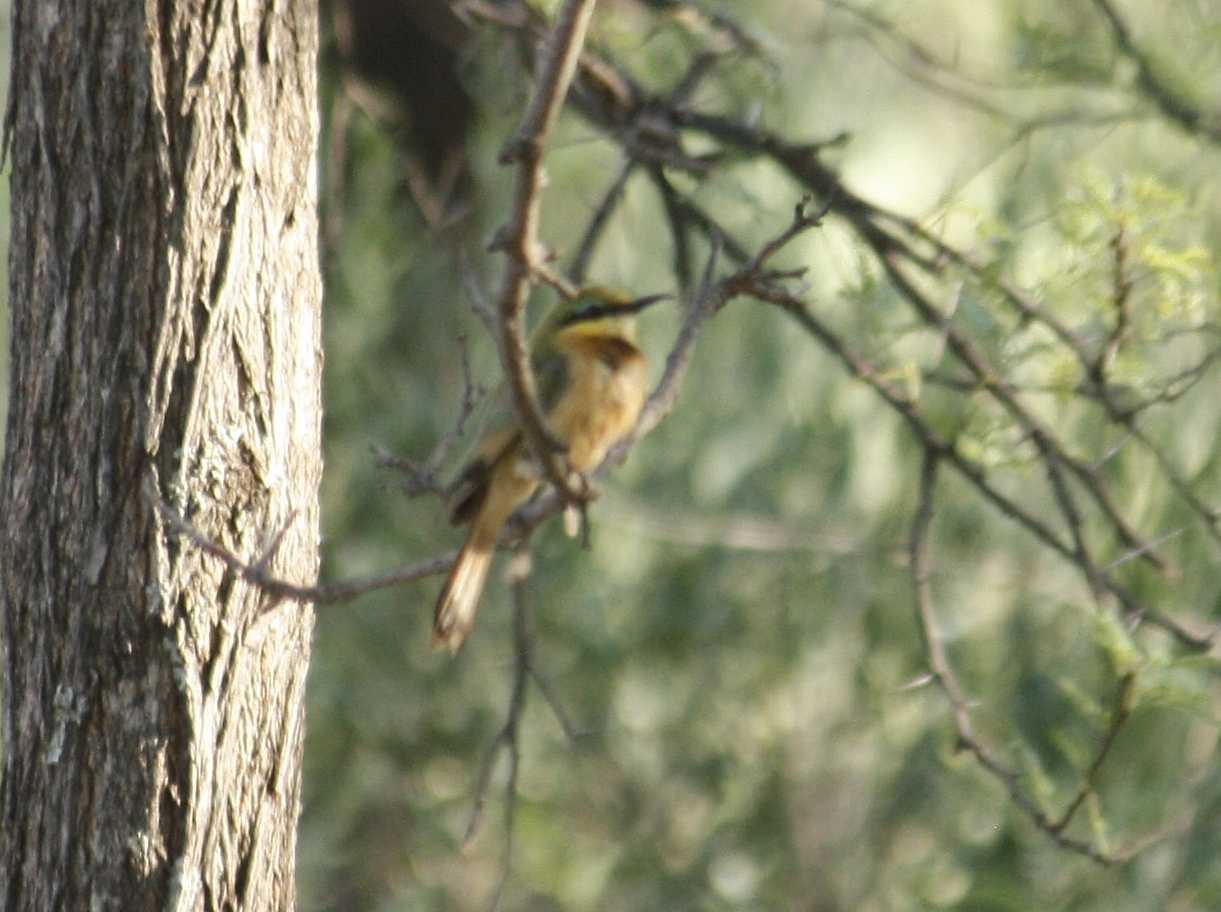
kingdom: Animalia
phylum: Chordata
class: Aves
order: Coraciiformes
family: Meropidae
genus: Merops
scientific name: Merops pusillus
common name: Little bee-eater
